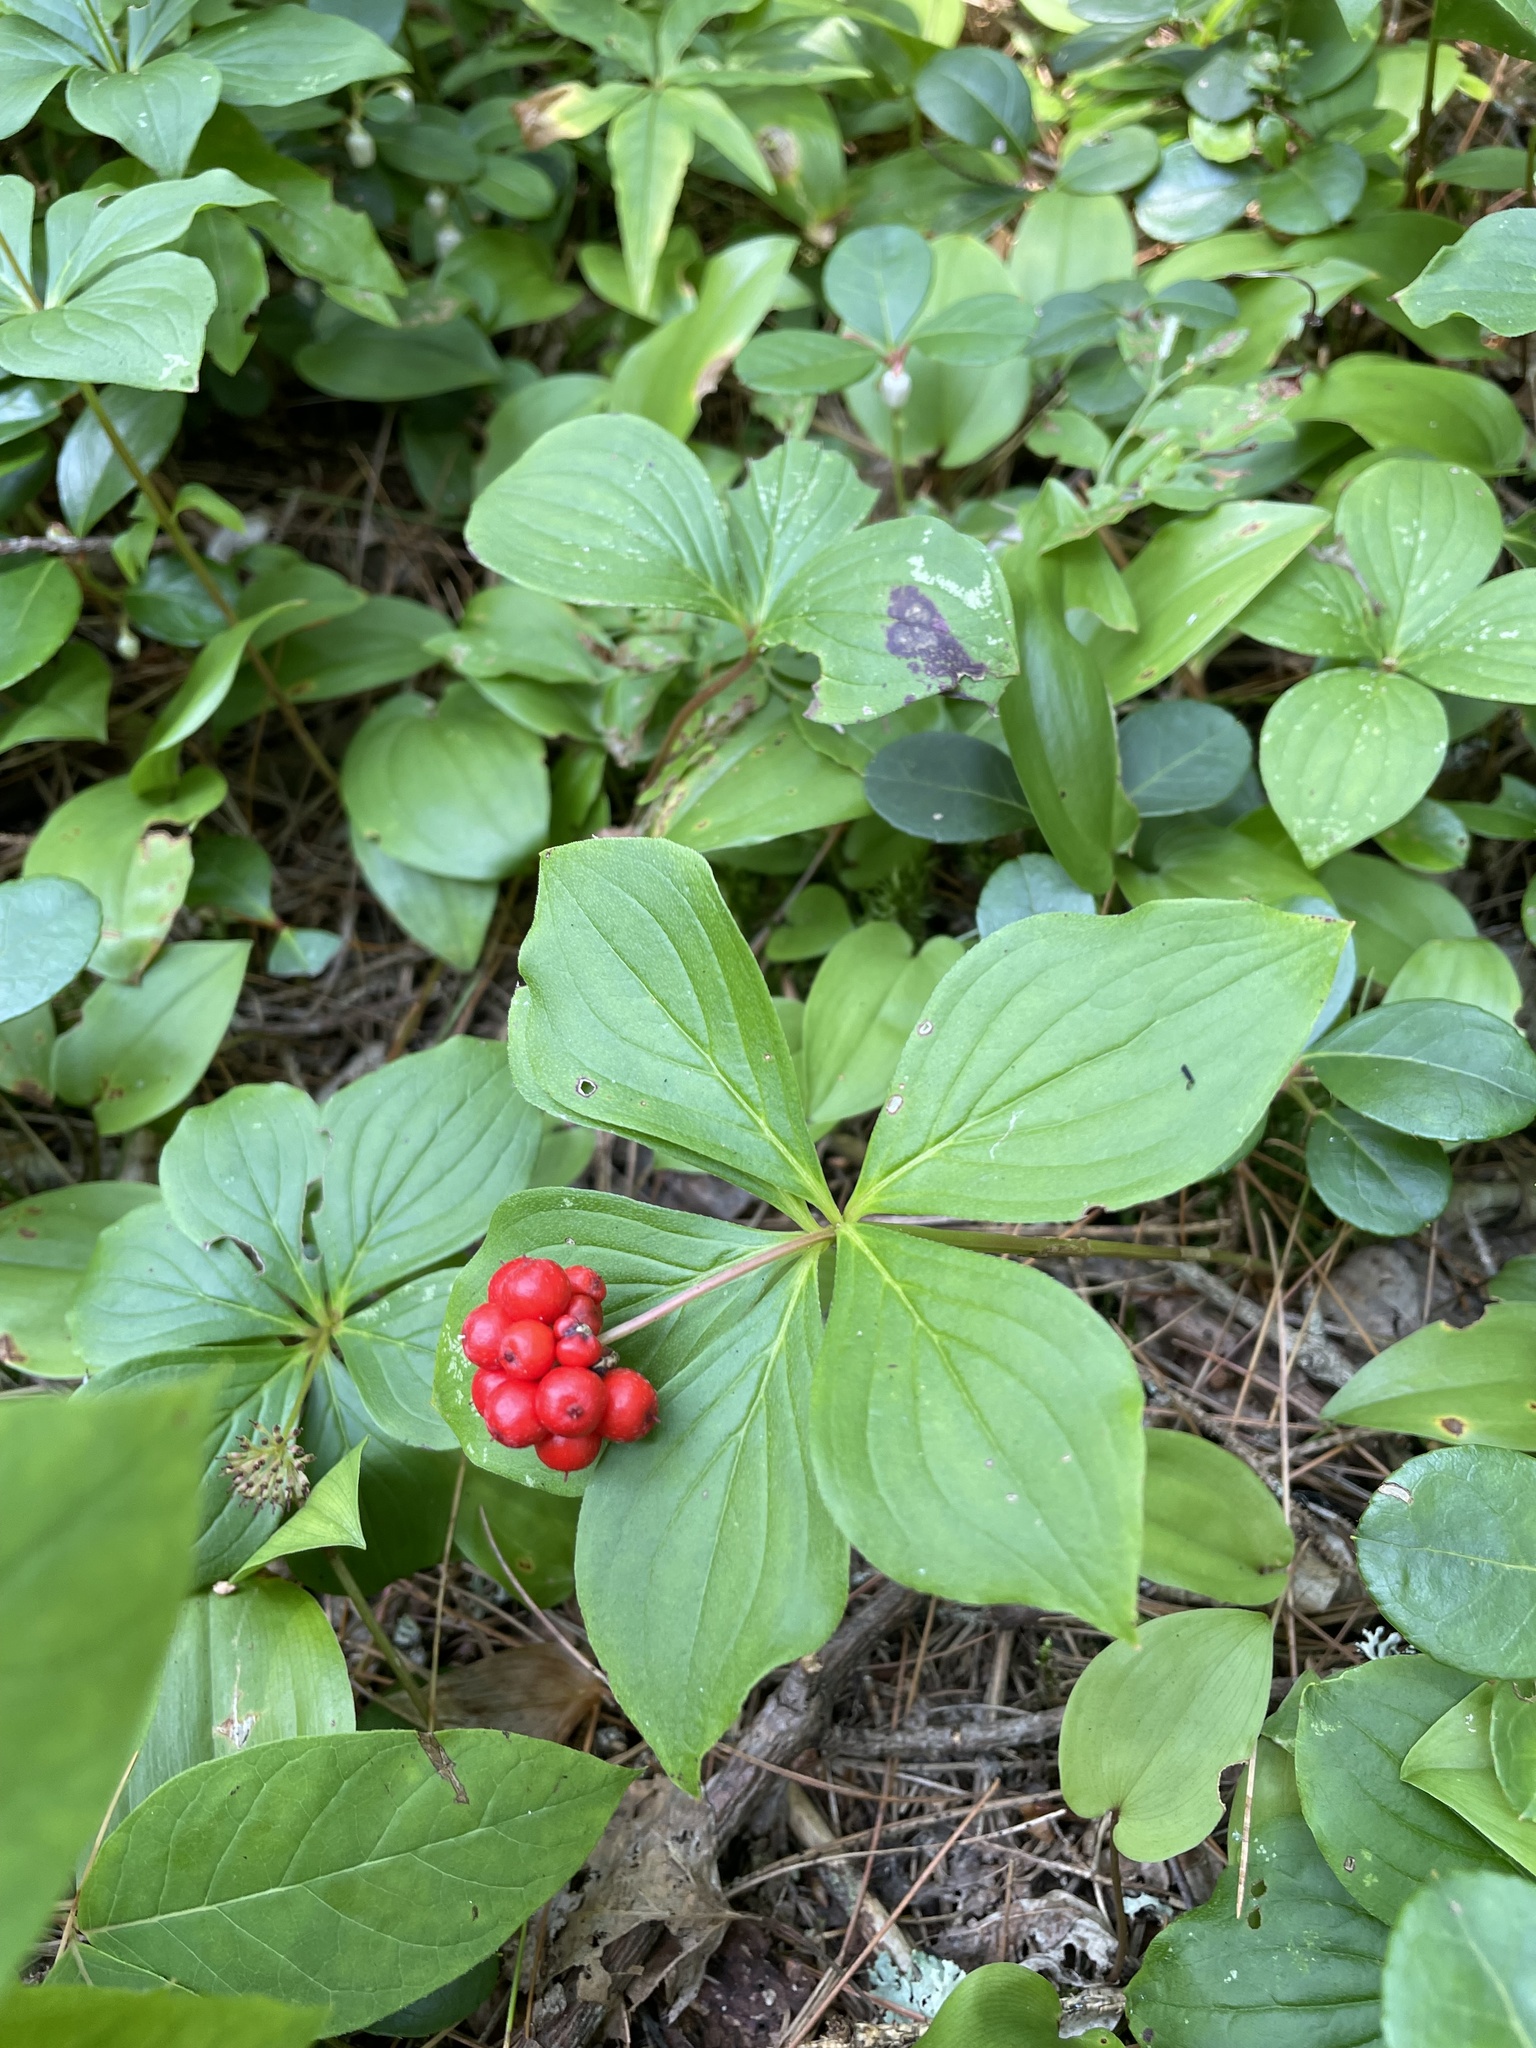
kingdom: Plantae
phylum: Tracheophyta
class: Magnoliopsida
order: Cornales
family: Cornaceae
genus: Cornus
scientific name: Cornus canadensis
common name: Creeping dogwood
